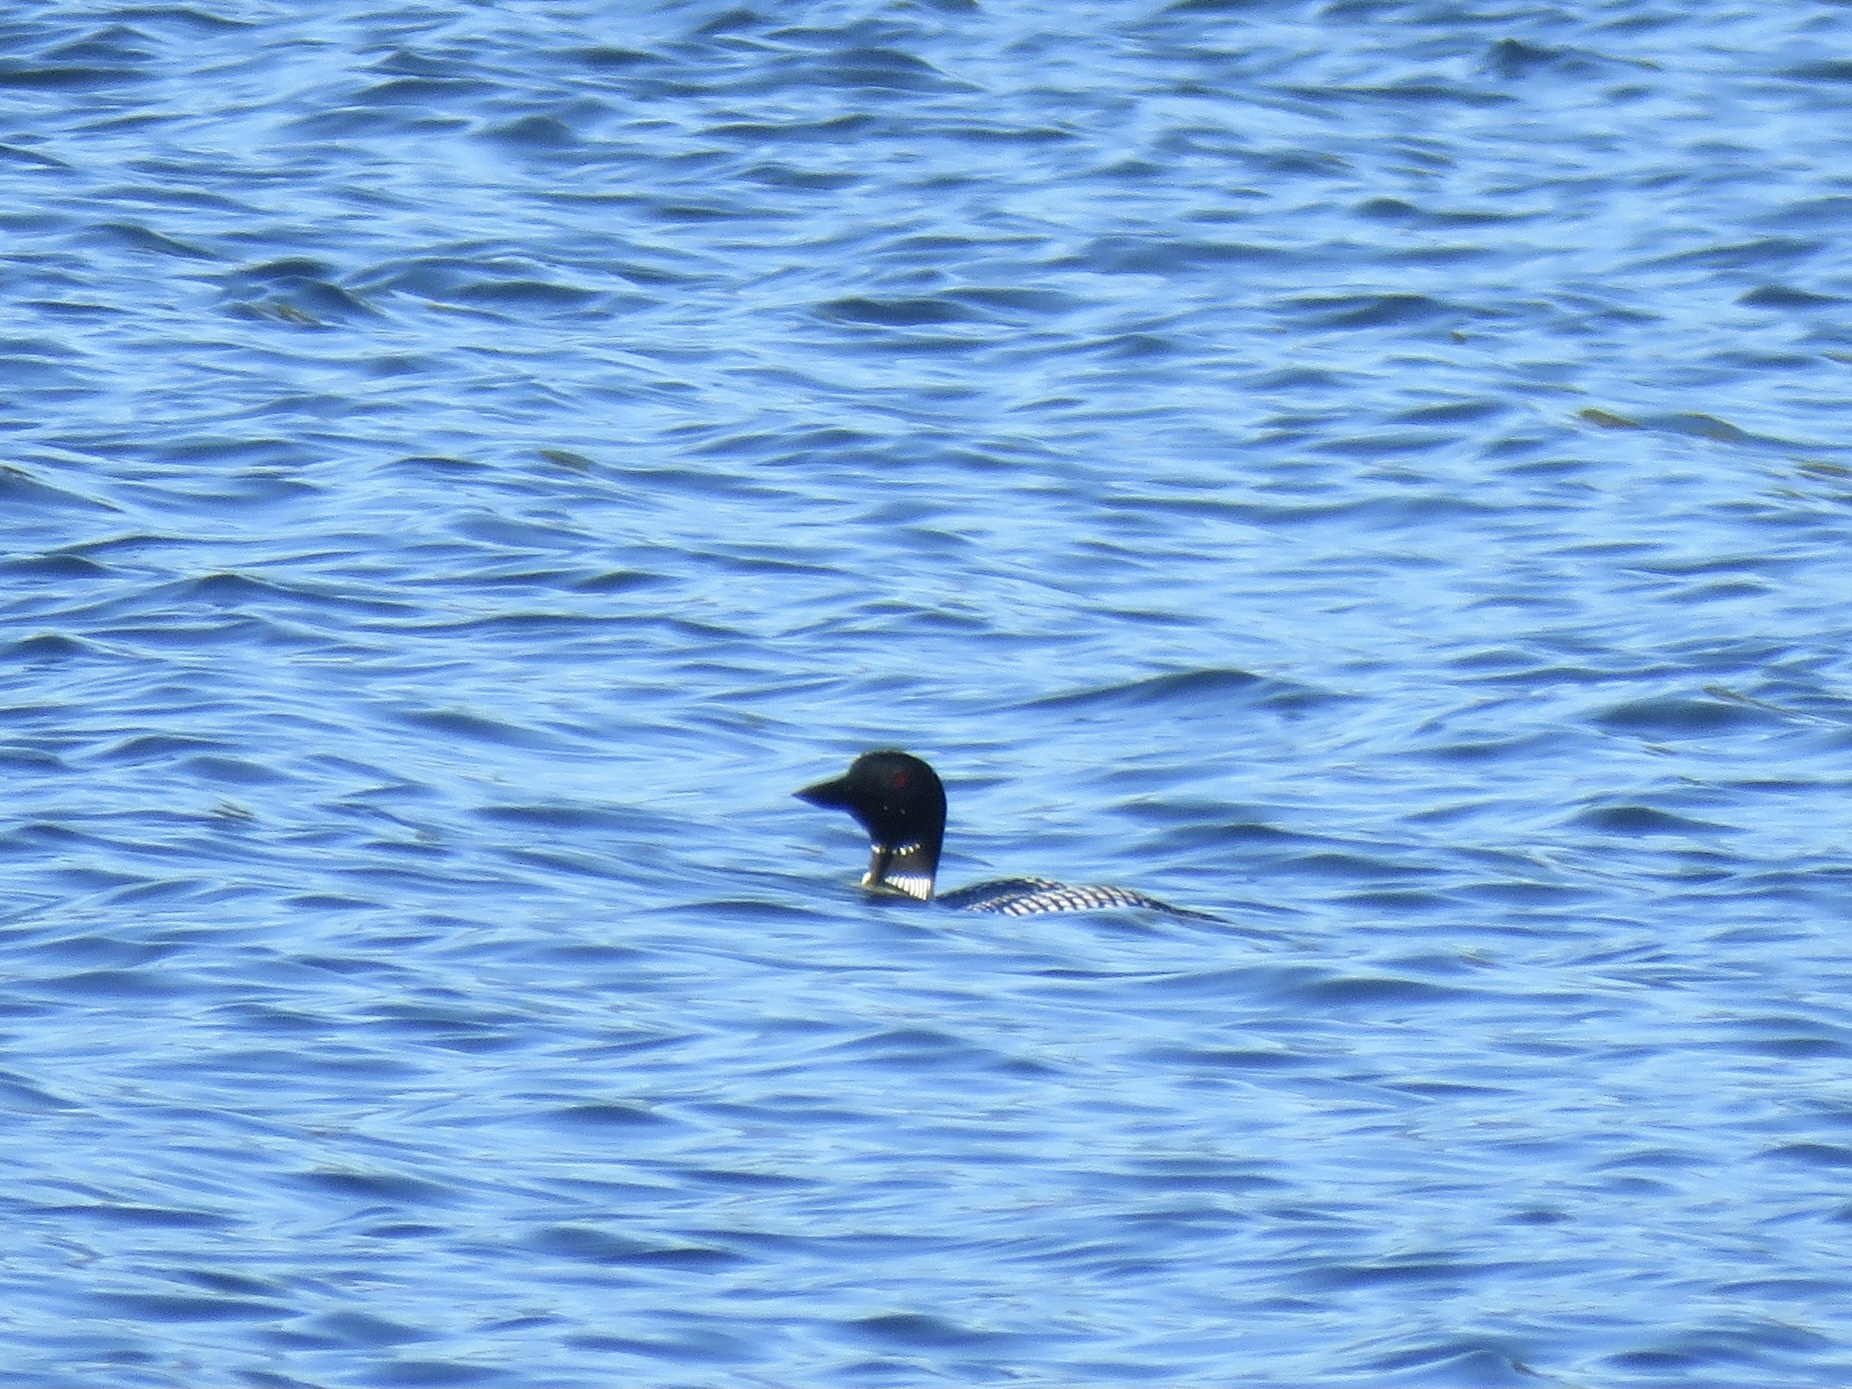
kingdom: Animalia
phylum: Chordata
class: Aves
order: Gaviiformes
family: Gaviidae
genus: Gavia
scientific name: Gavia immer
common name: Common loon
